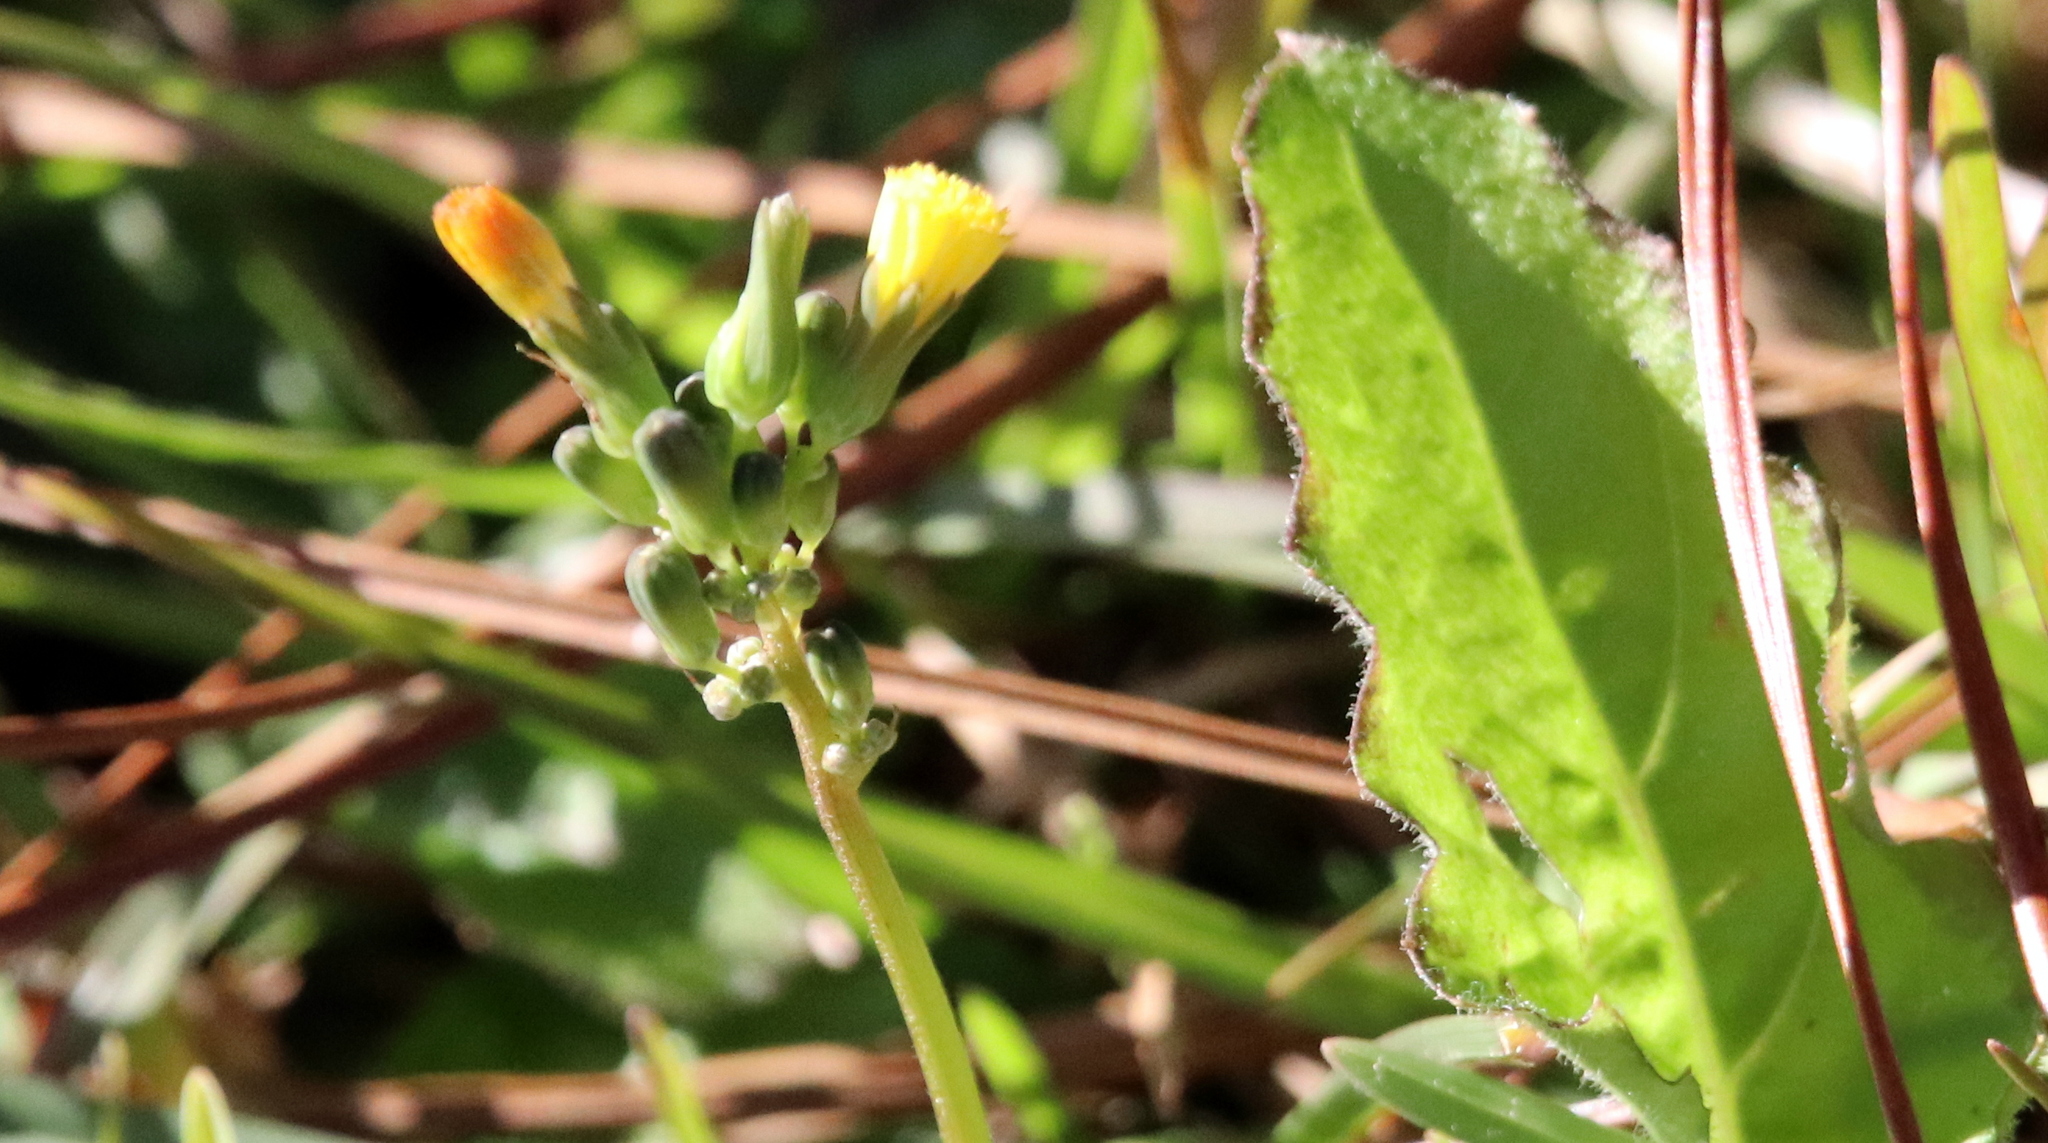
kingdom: Plantae
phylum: Tracheophyta
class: Magnoliopsida
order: Asterales
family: Asteraceae
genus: Youngia
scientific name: Youngia japonica
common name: Oriental false hawksbeard
